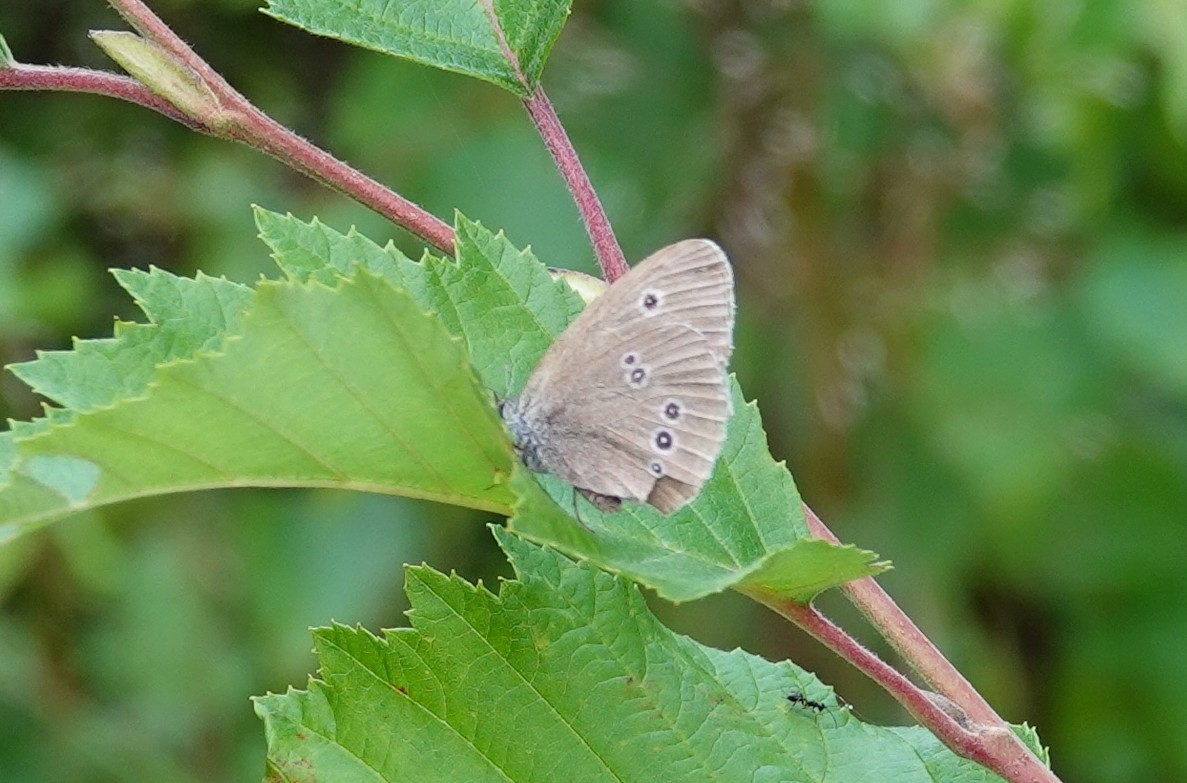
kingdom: Animalia
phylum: Arthropoda
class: Insecta
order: Lepidoptera
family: Nymphalidae
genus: Aphantopus
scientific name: Aphantopus hyperantus
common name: Ringlet
